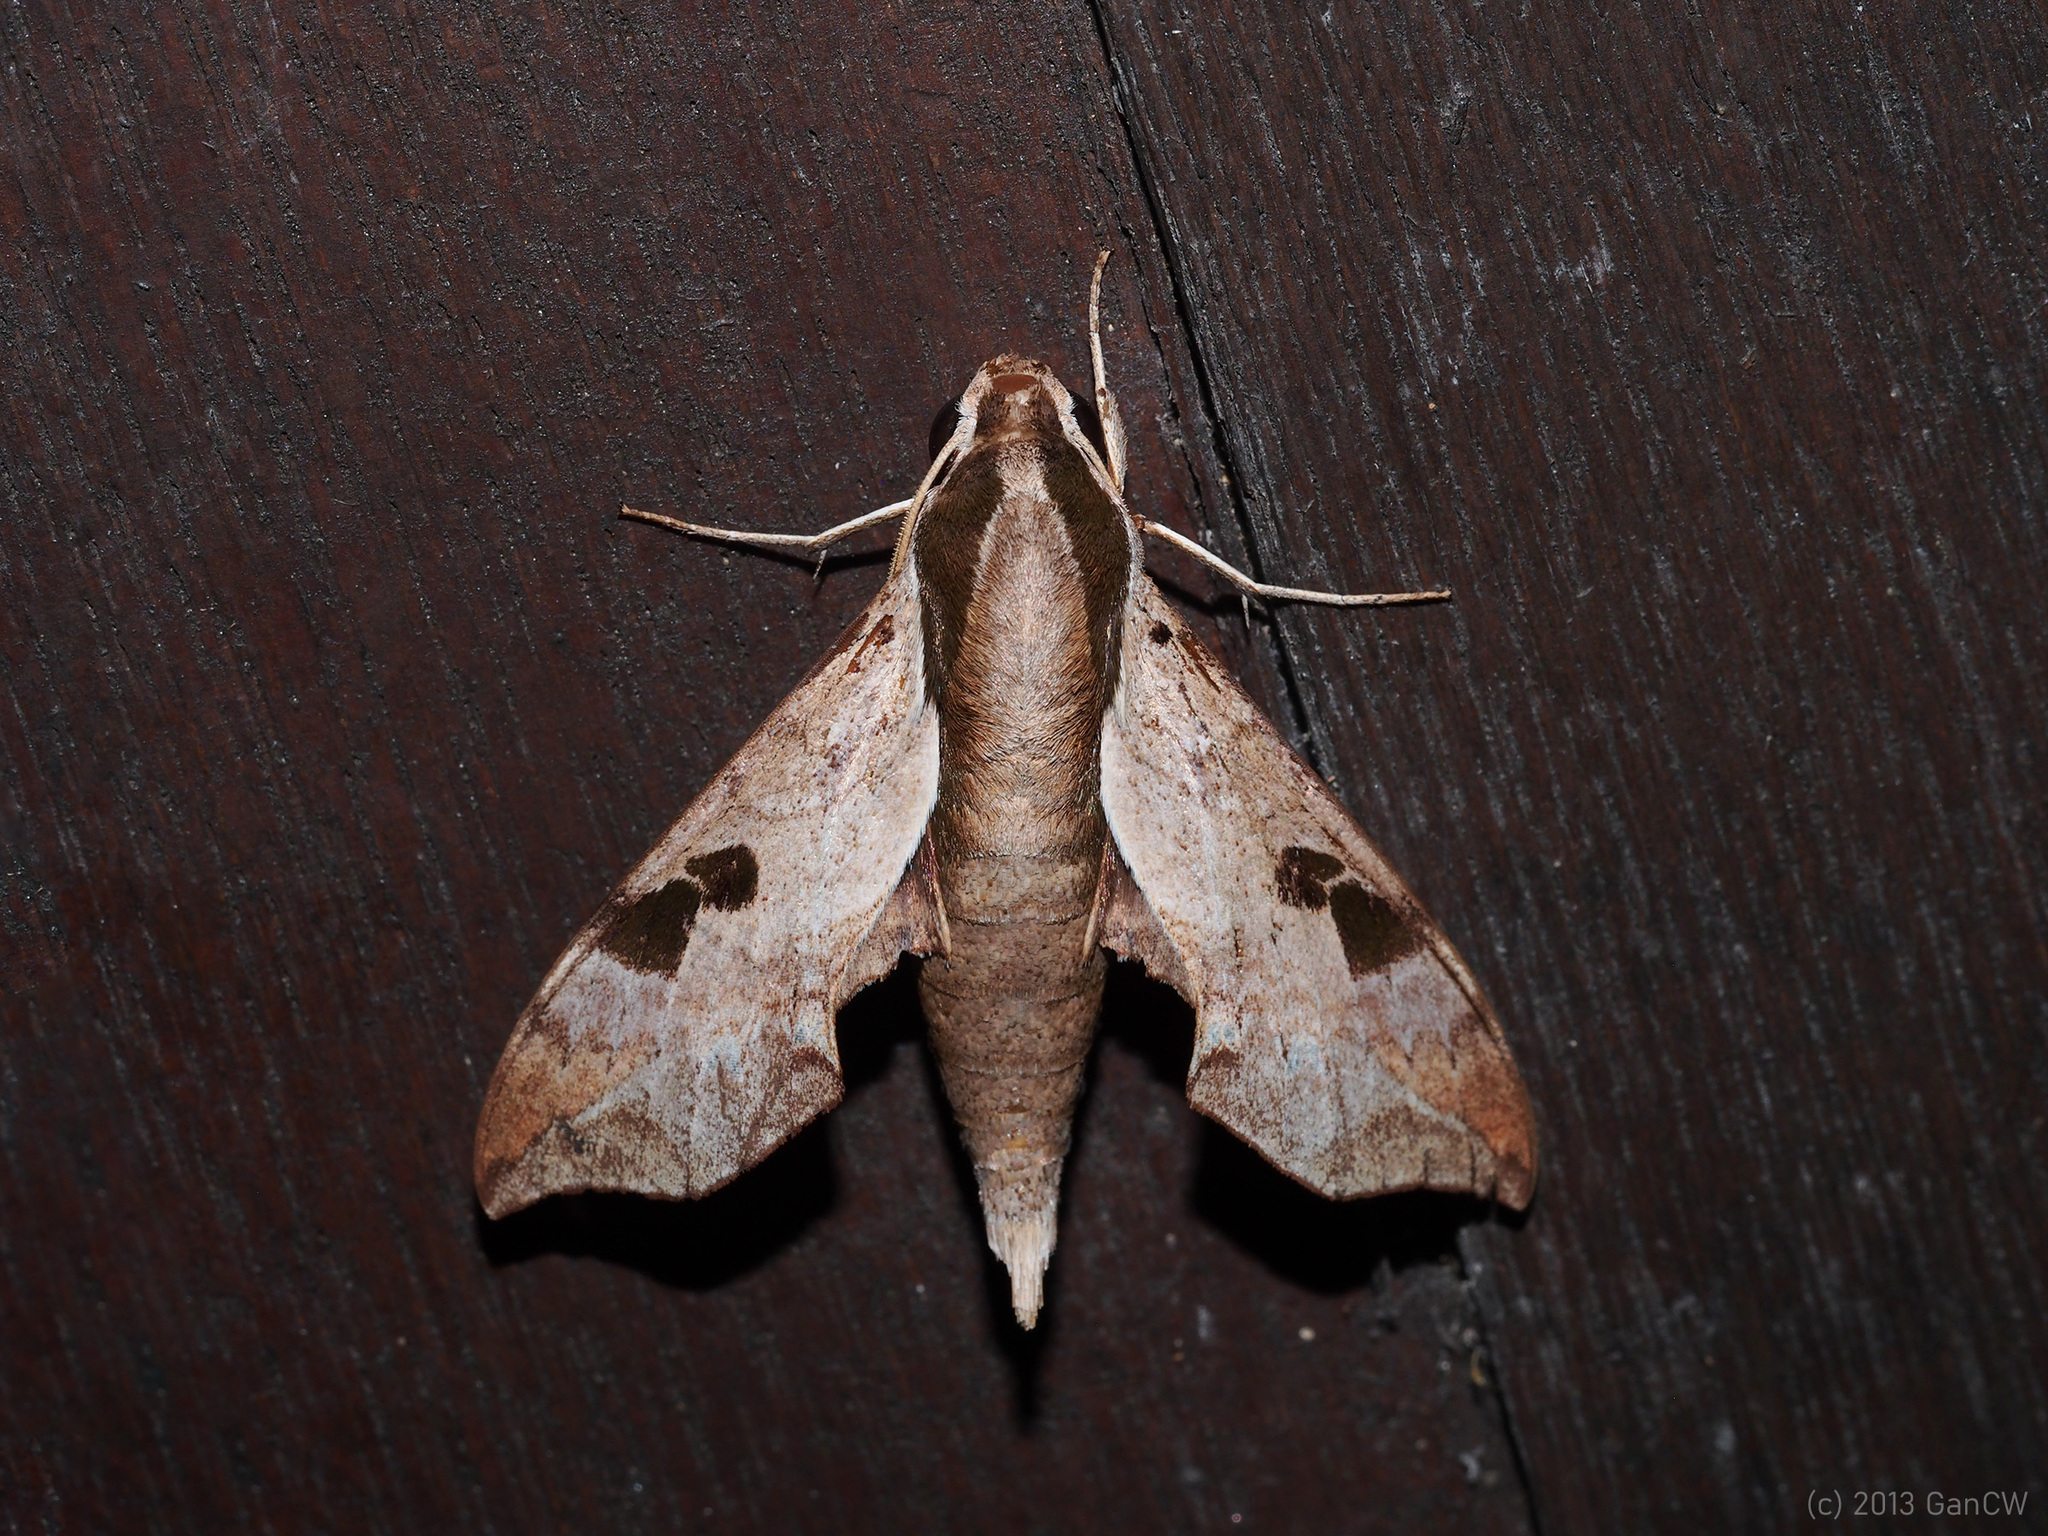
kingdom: Animalia
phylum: Arthropoda
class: Insecta
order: Lepidoptera
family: Sphingidae
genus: Enpinanga
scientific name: Enpinanga borneensis
